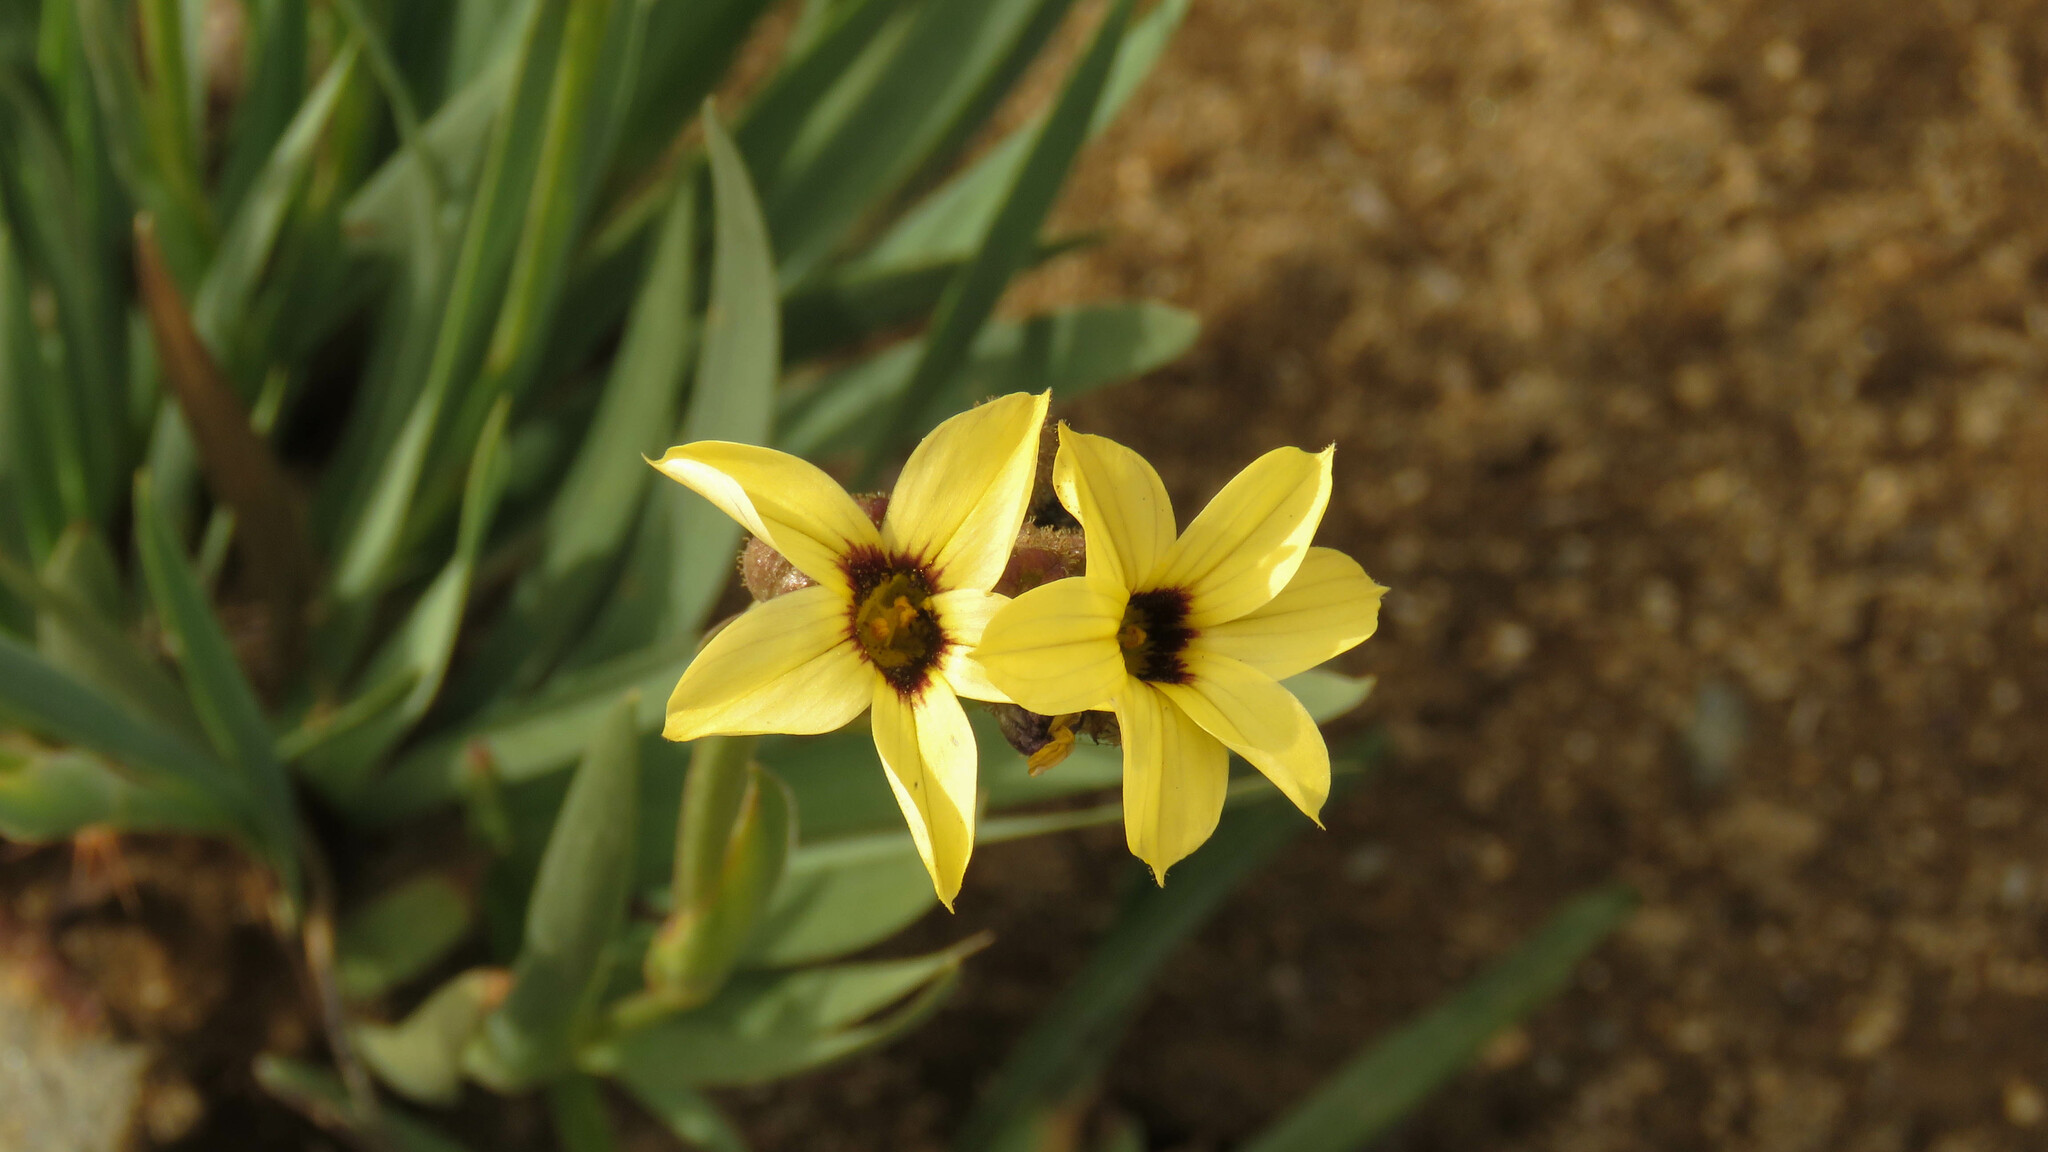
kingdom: Plantae
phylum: Tracheophyta
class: Liliopsida
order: Asparagales
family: Iridaceae
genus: Sisyrinchium
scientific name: Sisyrinchium arenarium
